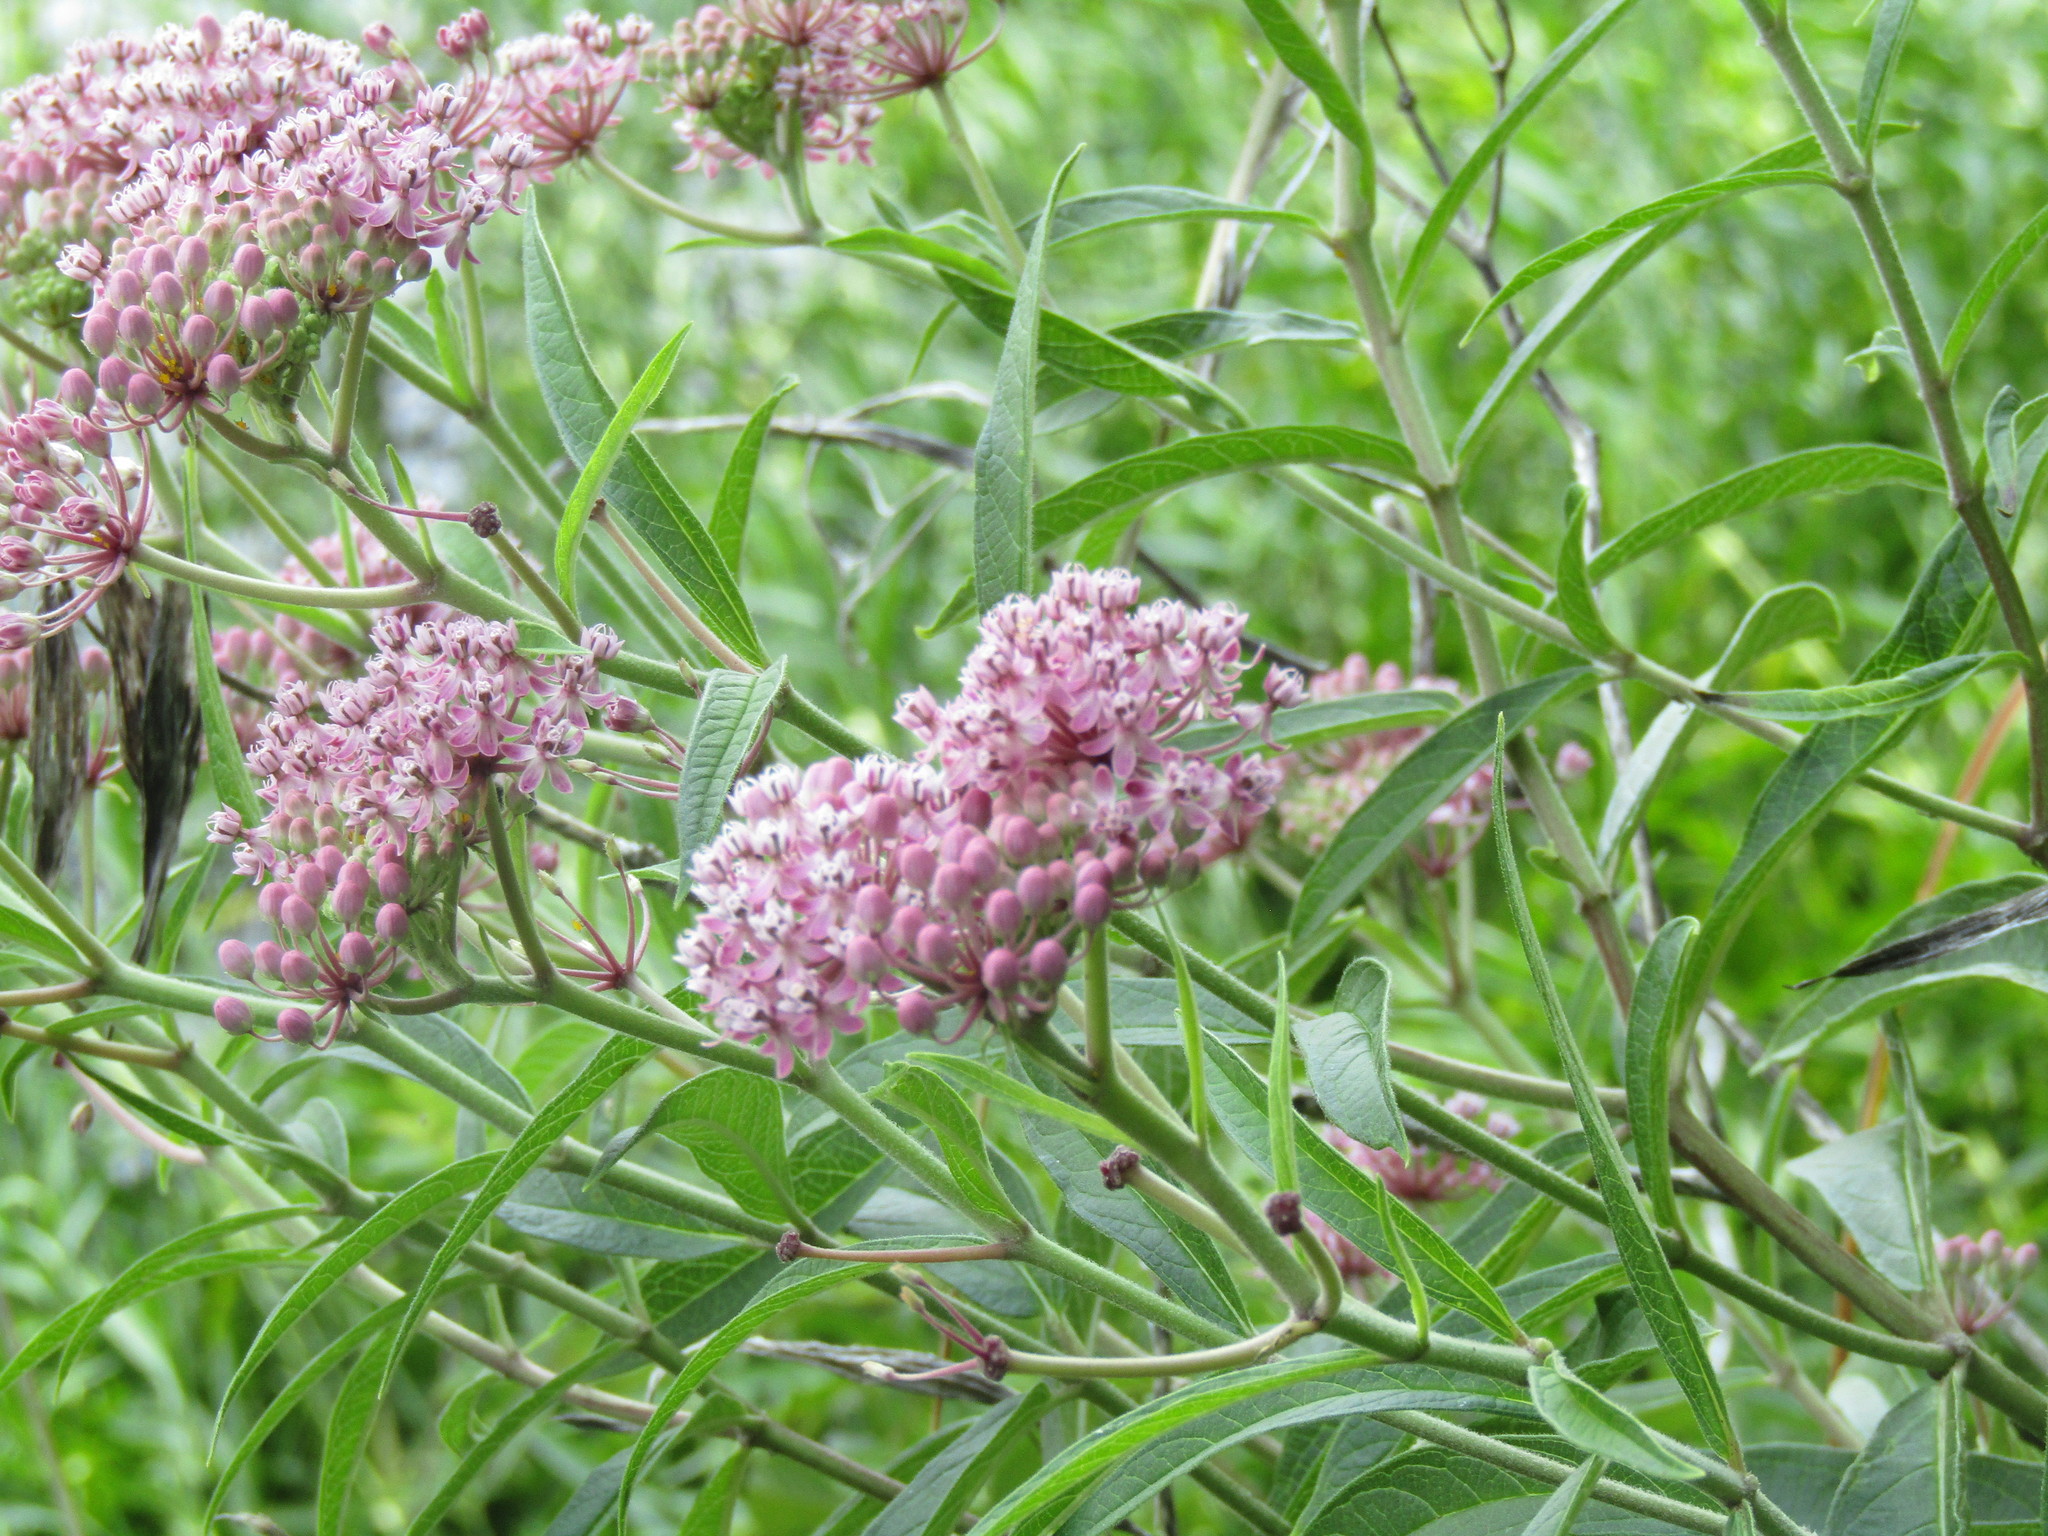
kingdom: Plantae
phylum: Tracheophyta
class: Magnoliopsida
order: Gentianales
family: Apocynaceae
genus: Asclepias
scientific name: Asclepias incarnata
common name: Swamp milkweed
